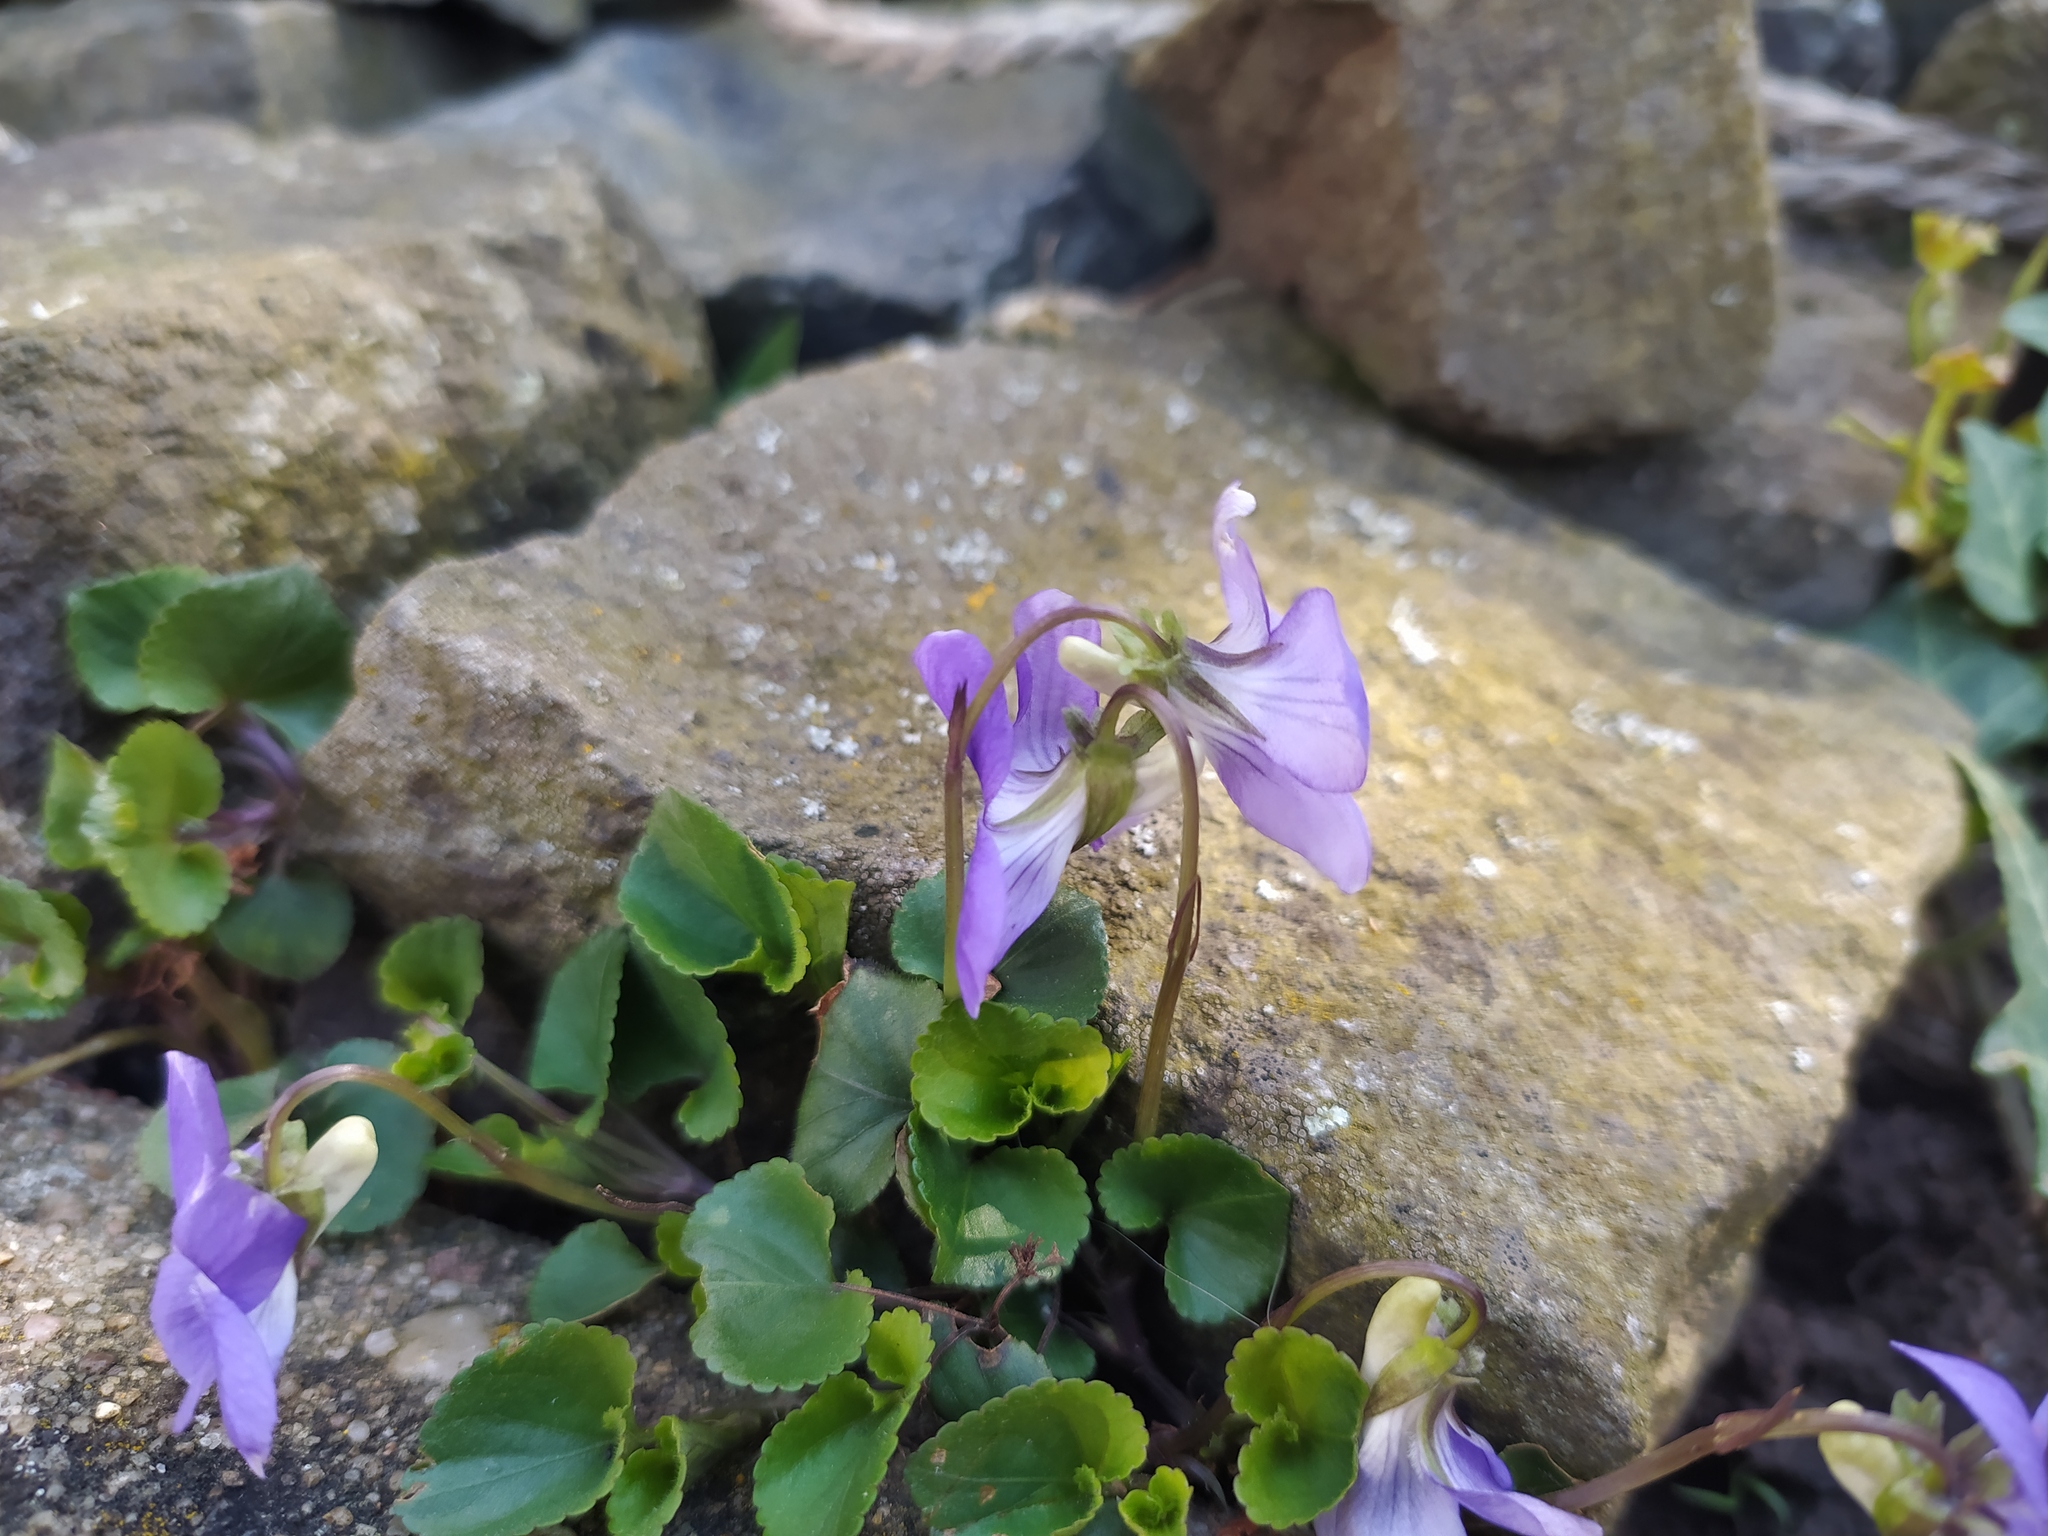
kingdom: Plantae
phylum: Tracheophyta
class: Magnoliopsida
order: Malpighiales
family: Violaceae
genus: Viola
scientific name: Viola riviniana
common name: Common dog-violet
